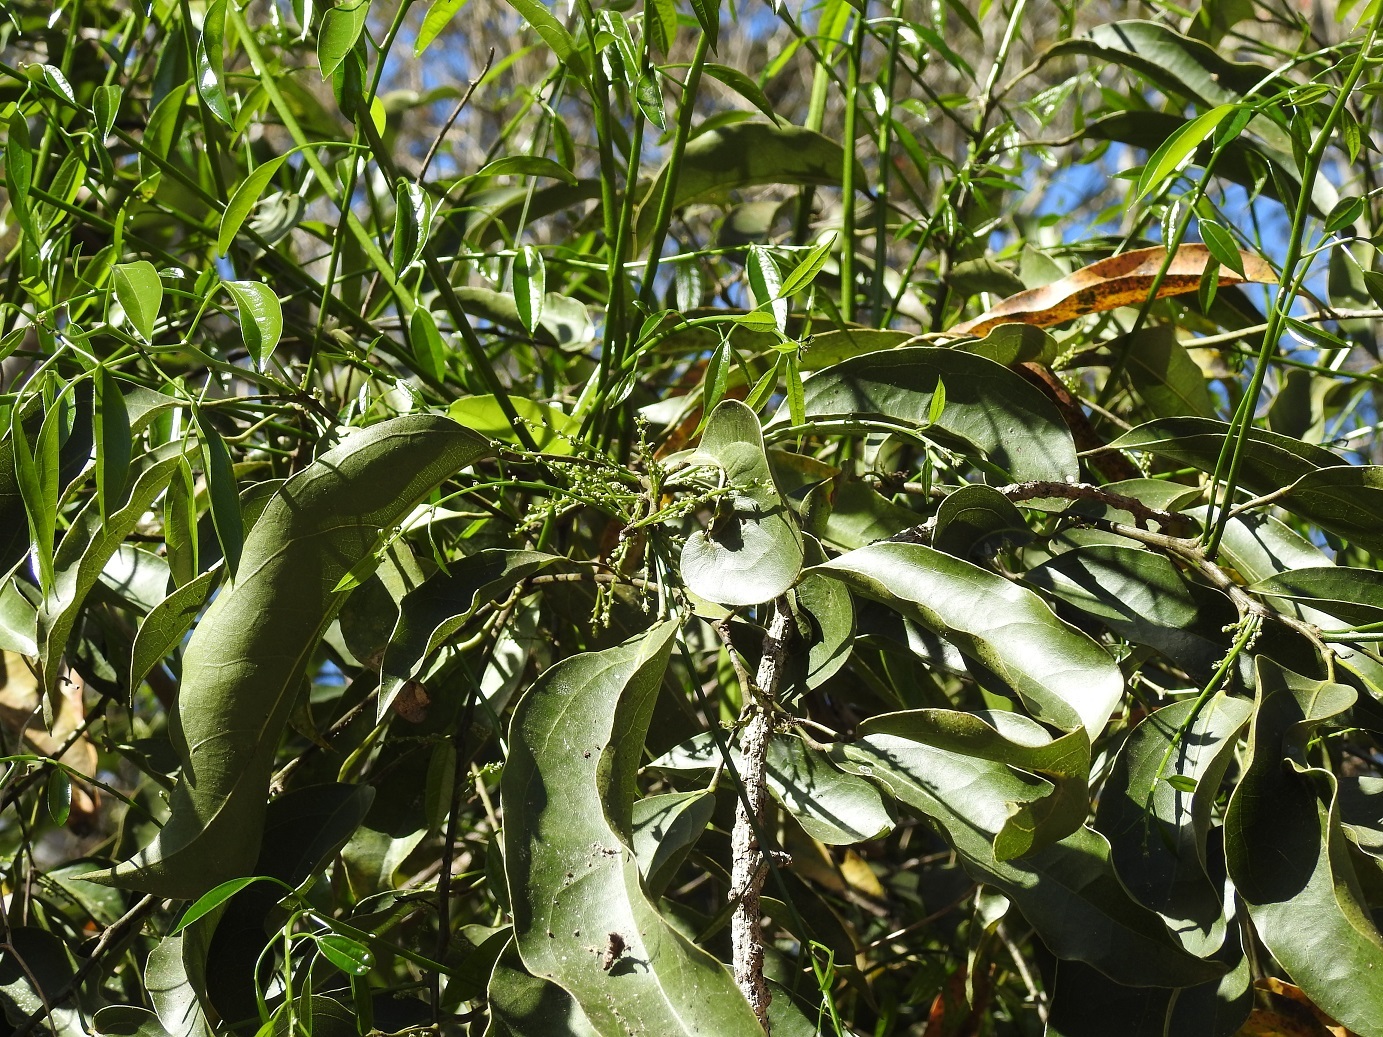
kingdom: Plantae
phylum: Tracheophyta
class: Magnoliopsida
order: Ranunculales
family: Menispermaceae
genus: Hyperbaena
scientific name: Hyperbaena mexicana
